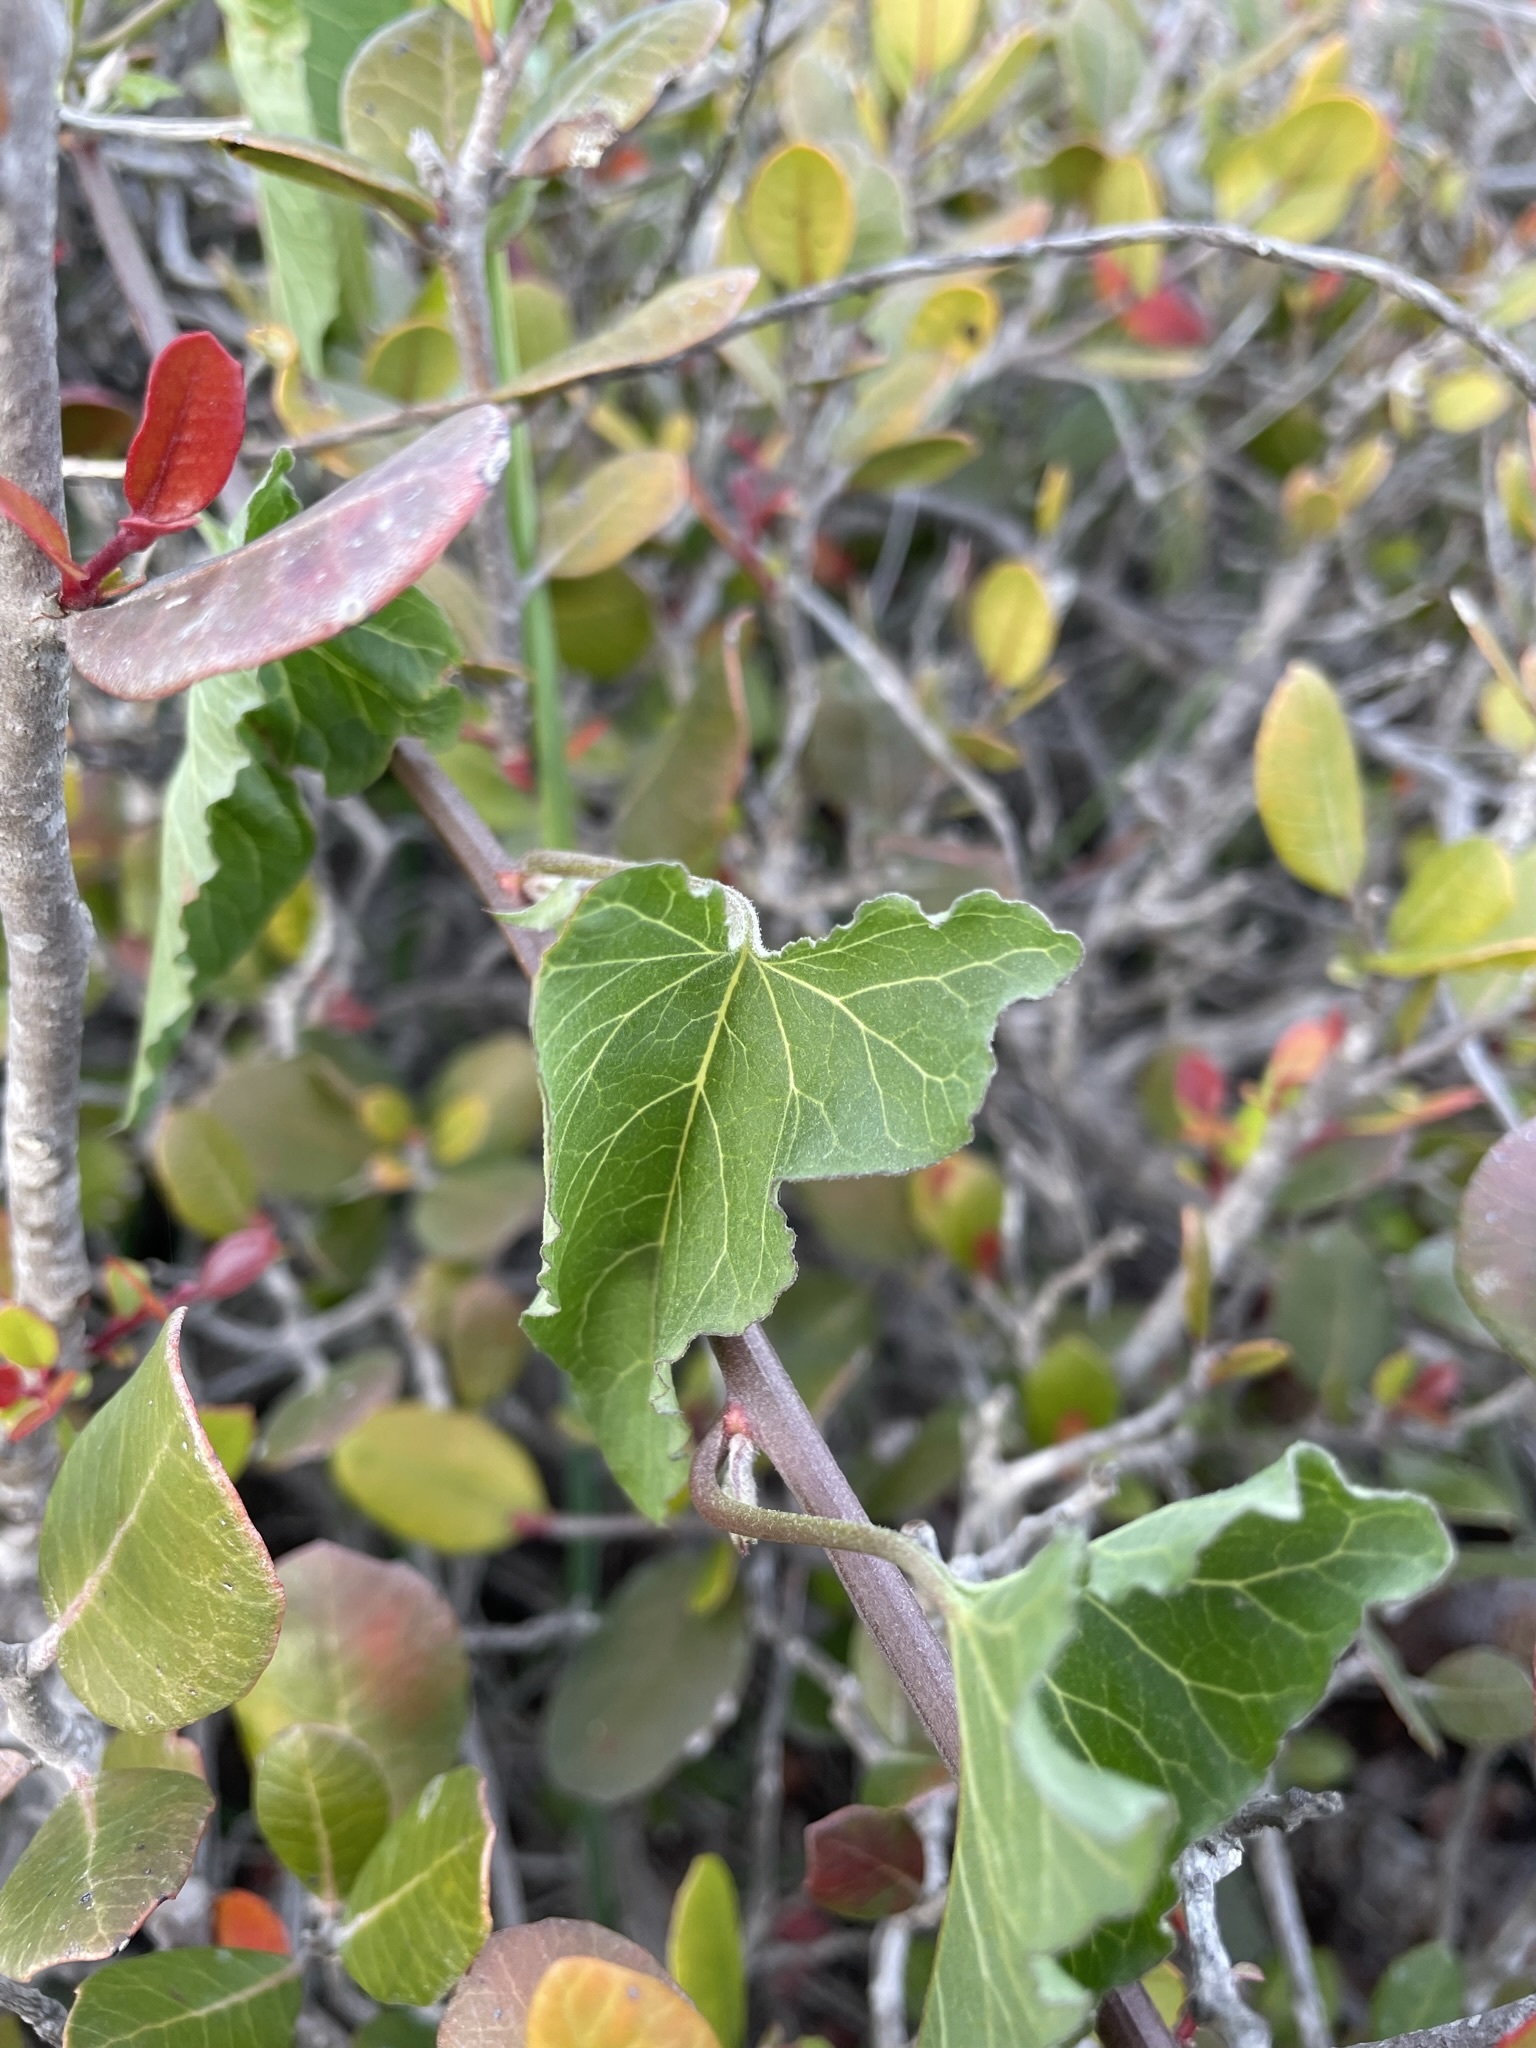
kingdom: Plantae
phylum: Tracheophyta
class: Magnoliopsida
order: Solanales
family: Convolvulaceae
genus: Calystegia
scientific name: Calystegia macrostegia
